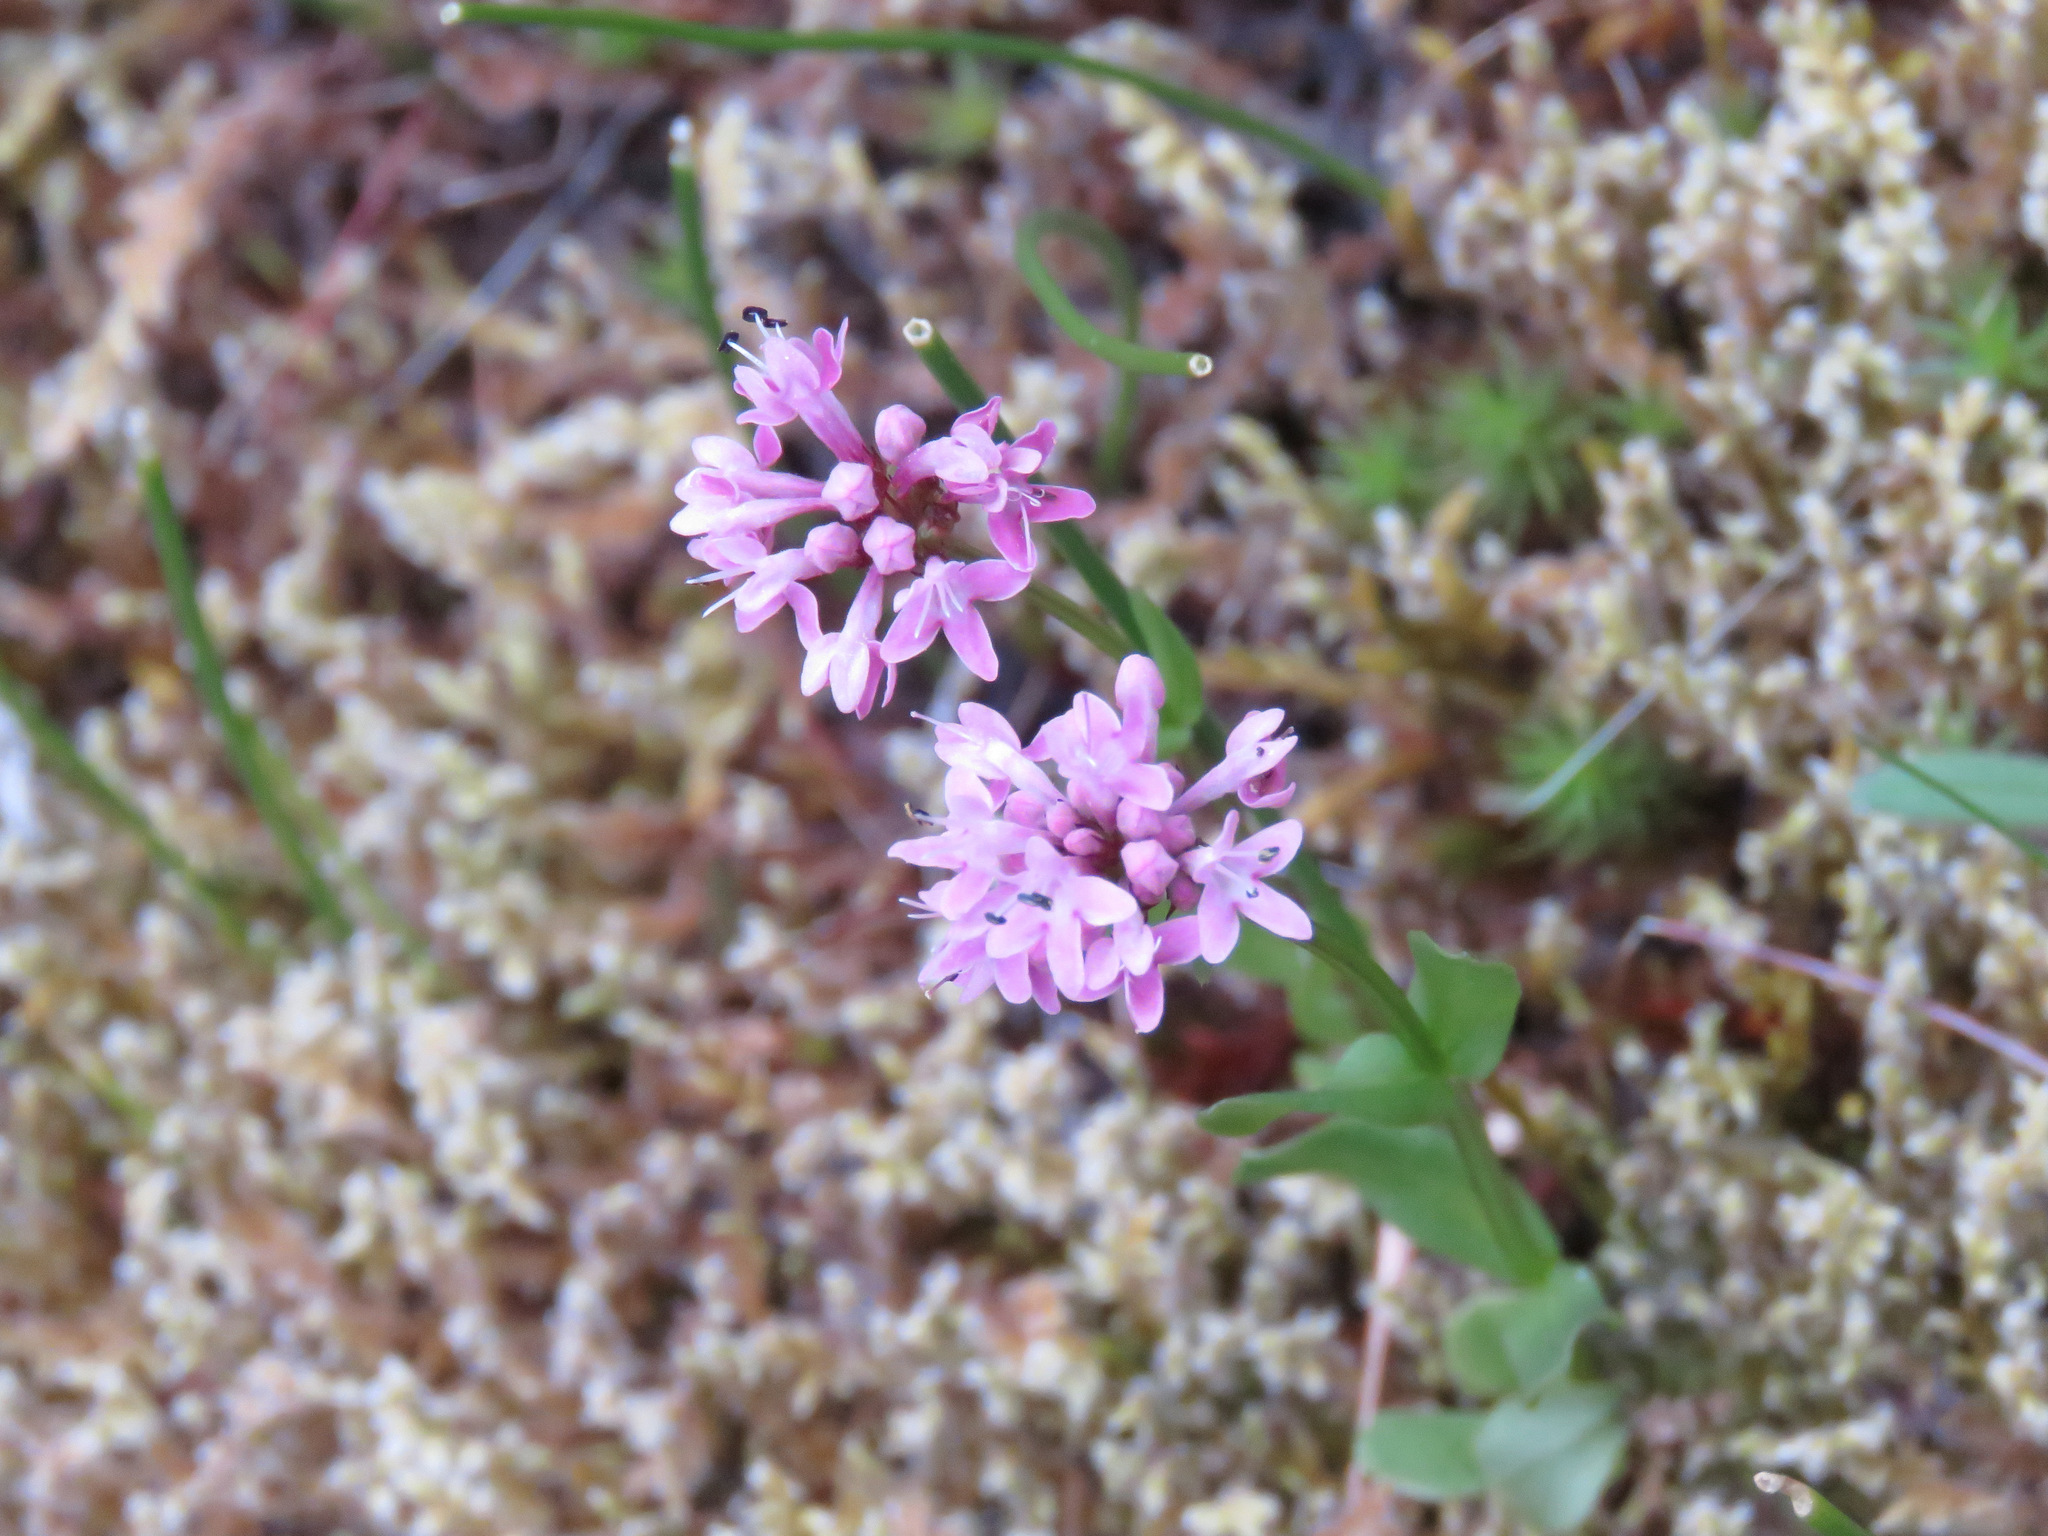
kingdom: Plantae
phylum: Tracheophyta
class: Magnoliopsida
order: Dipsacales
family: Caprifoliaceae
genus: Plectritis
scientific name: Plectritis congesta
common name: Pink plectritis
